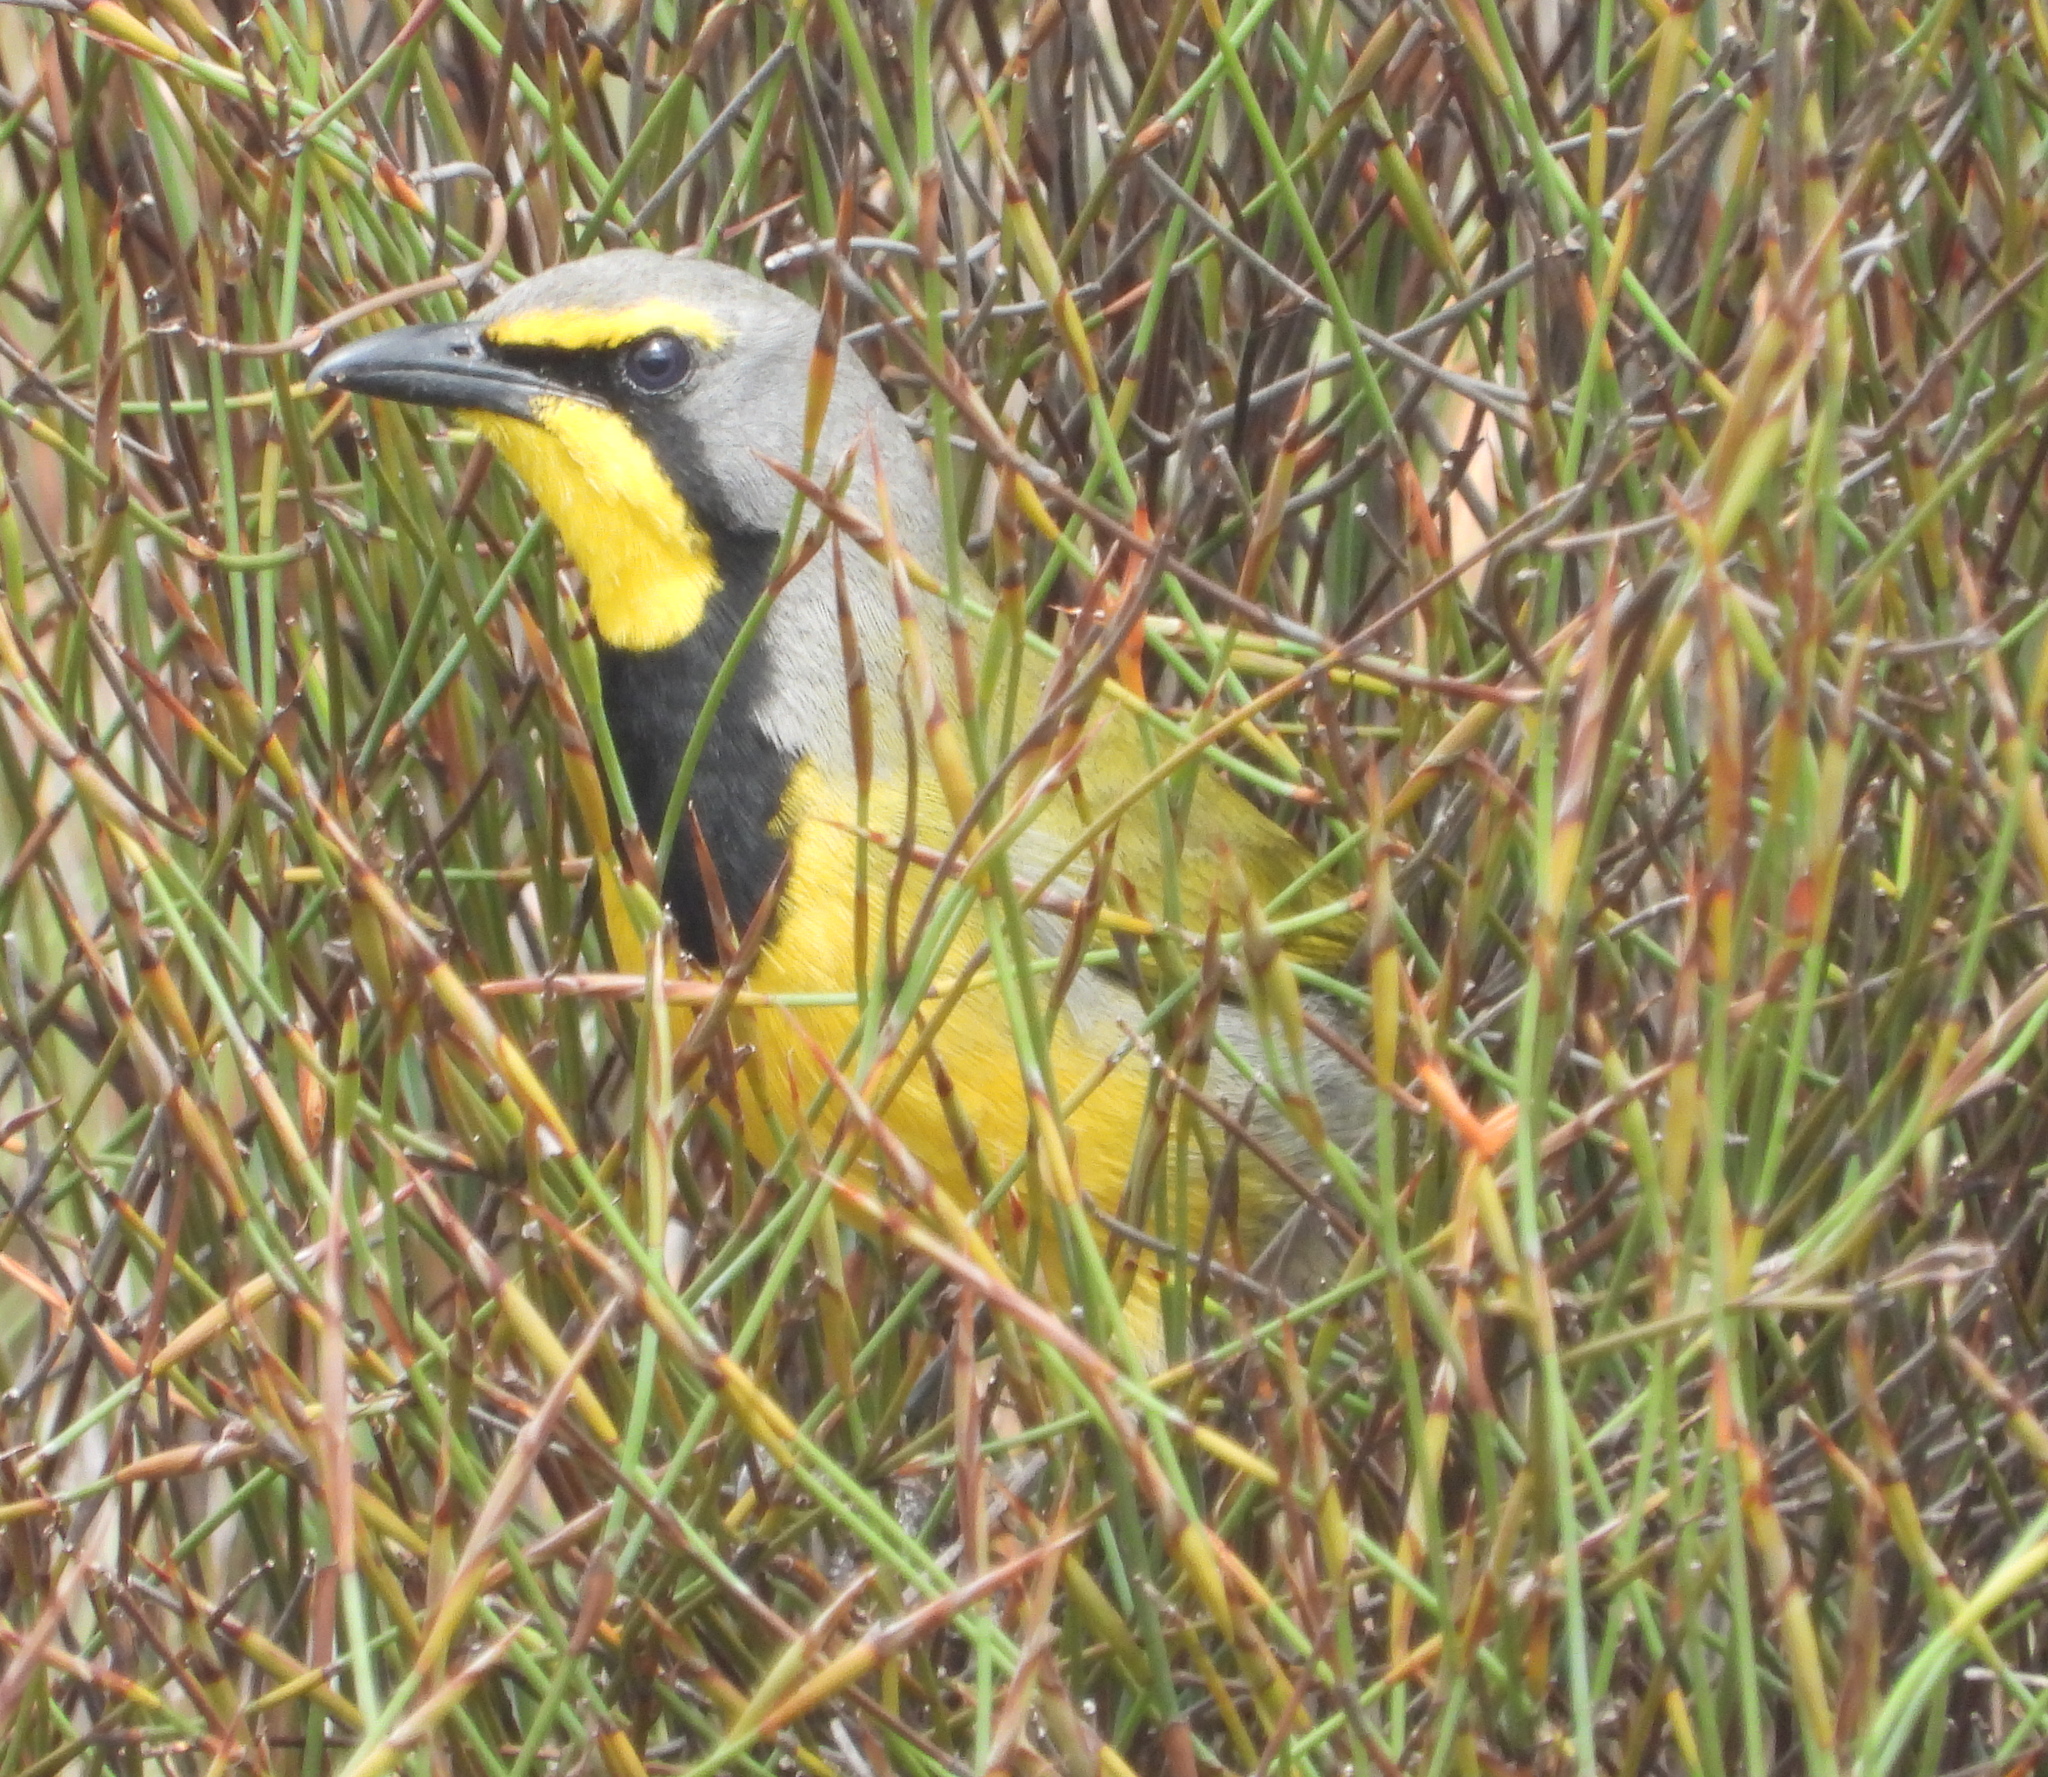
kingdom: Animalia
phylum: Chordata
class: Aves
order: Passeriformes
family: Malaconotidae
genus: Telophorus
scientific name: Telophorus zeylonus
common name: Bokmakierie
